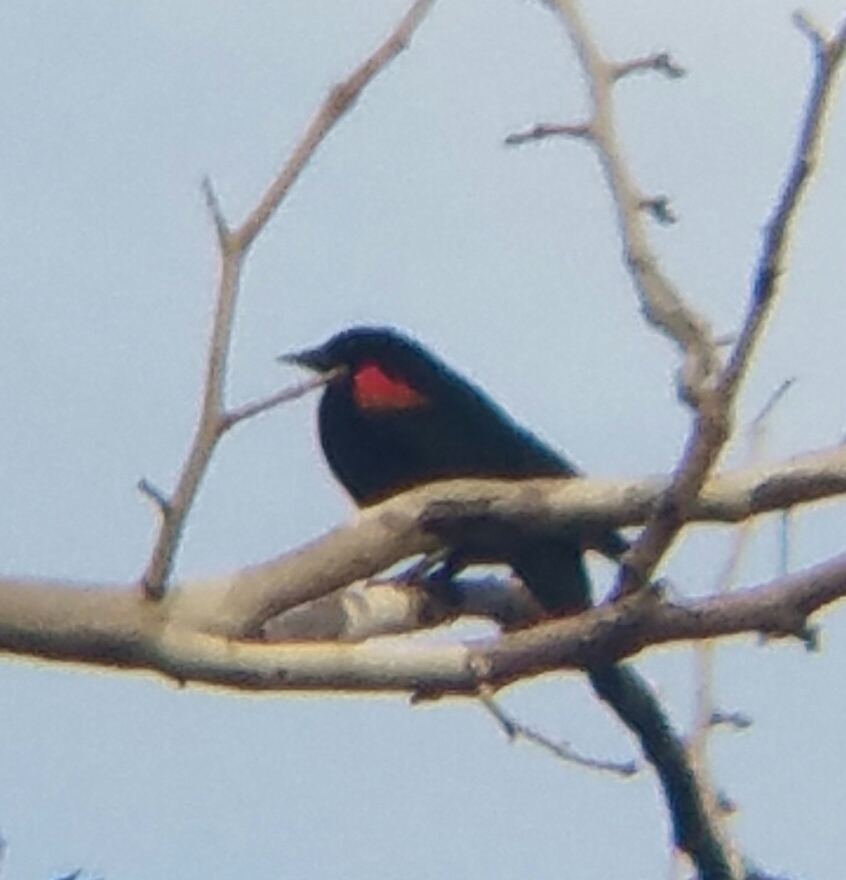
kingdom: Animalia
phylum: Chordata
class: Aves
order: Passeriformes
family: Icteridae
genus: Agelaius
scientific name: Agelaius phoeniceus
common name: Red-winged blackbird
